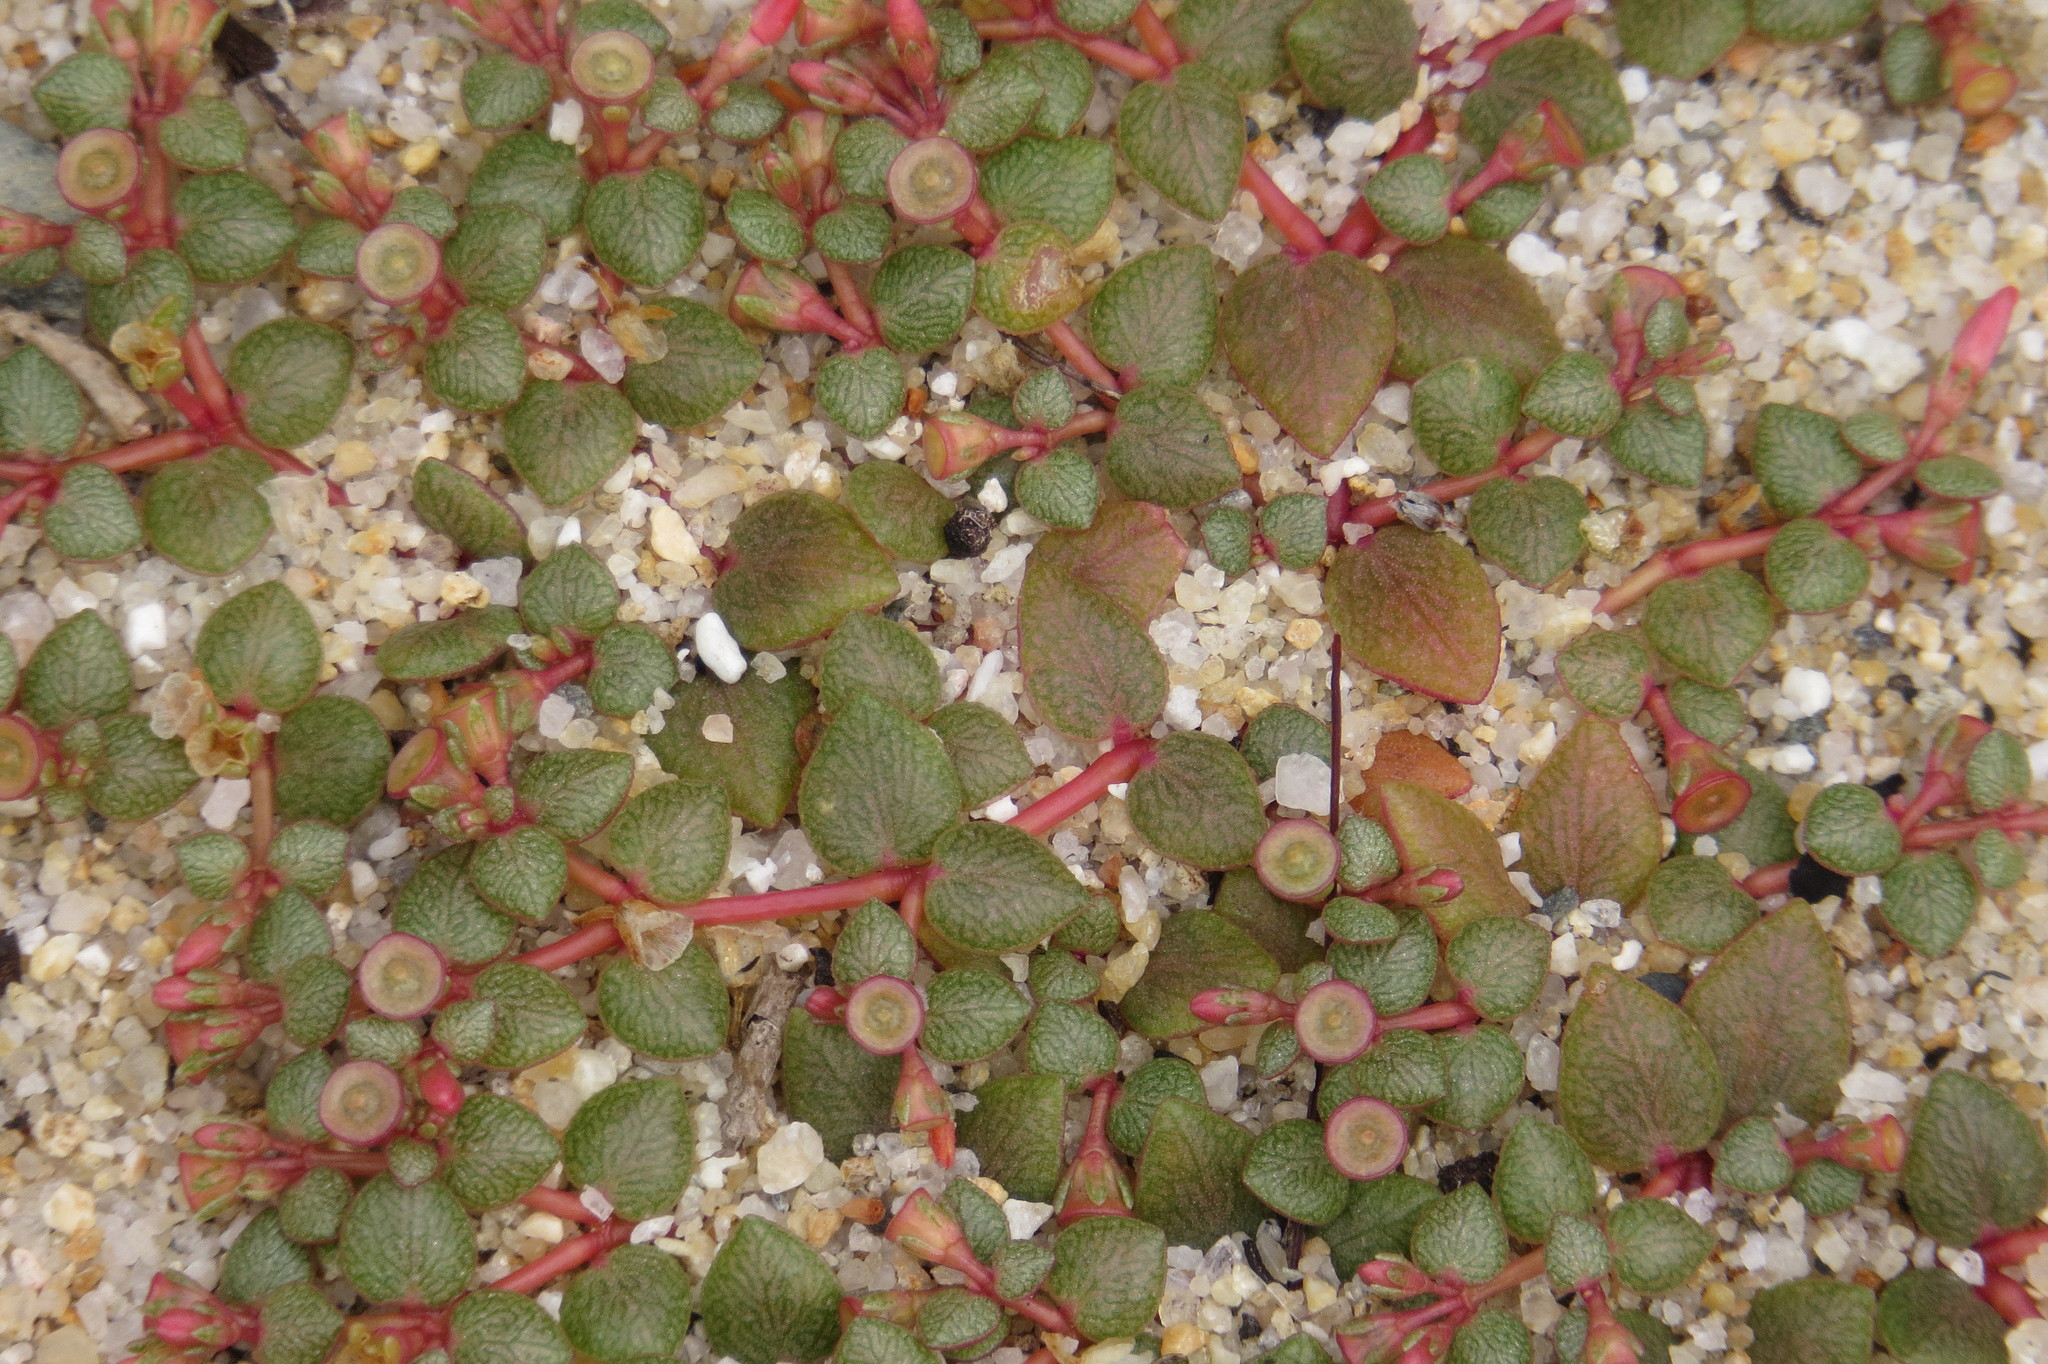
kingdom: Plantae
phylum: Tracheophyta
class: Magnoliopsida
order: Caryophyllales
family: Portulacaceae
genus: Portulaca
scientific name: Portulaca bicolor
